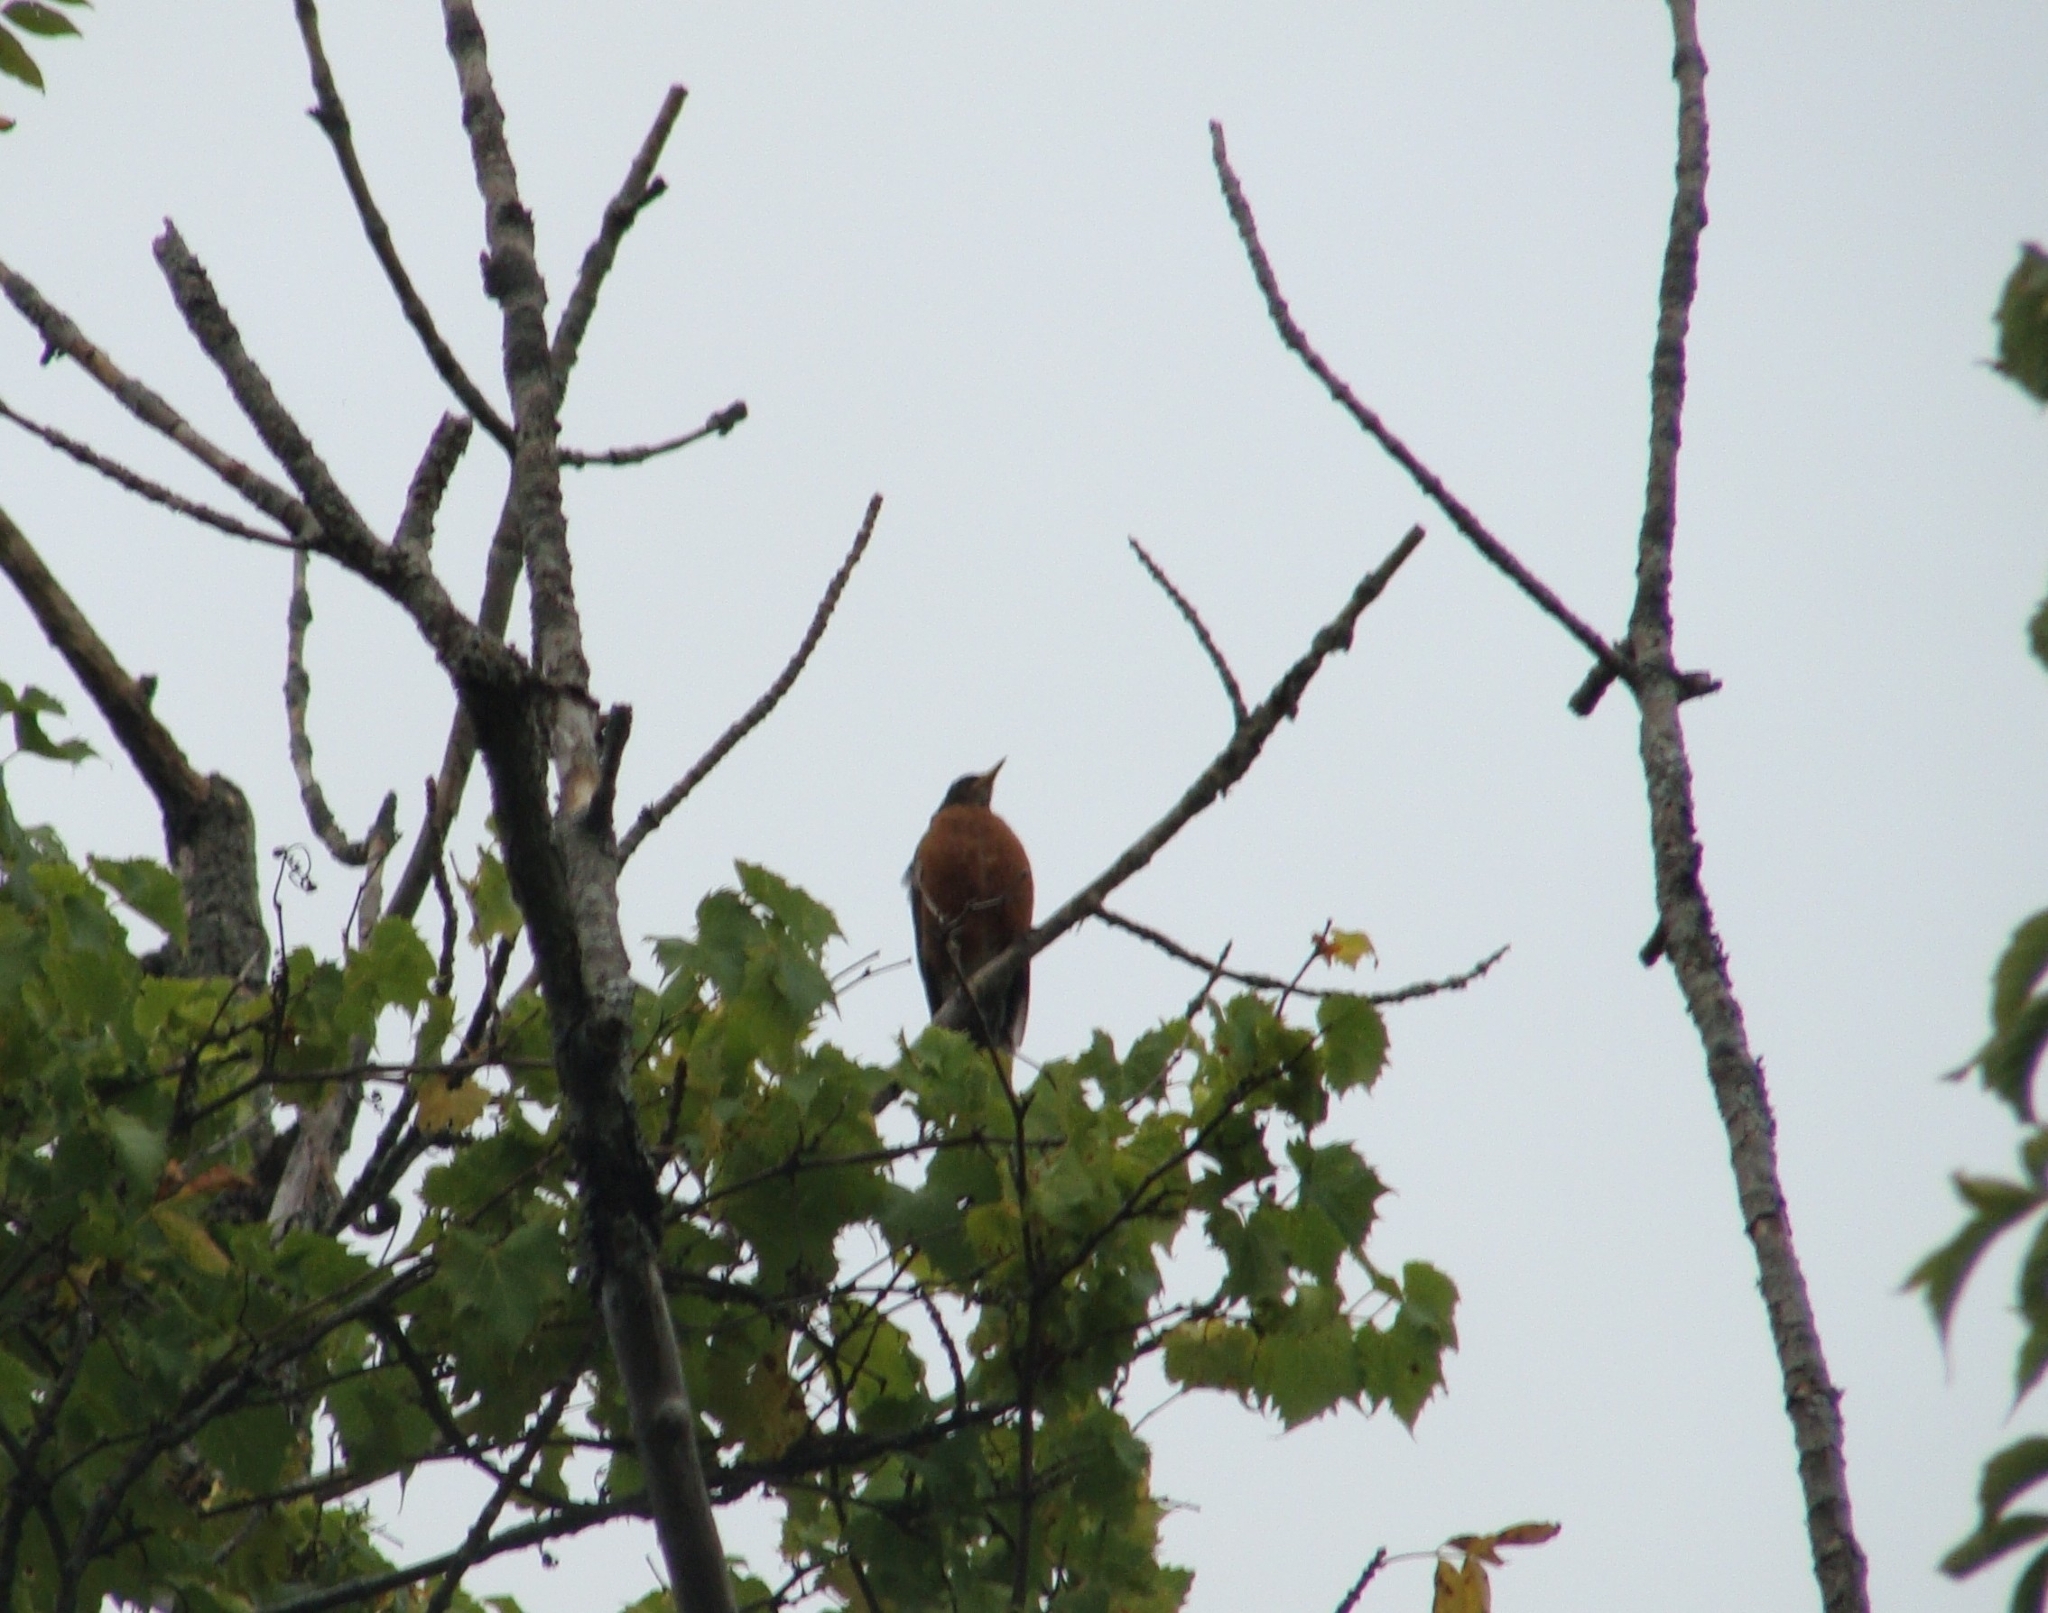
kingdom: Animalia
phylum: Chordata
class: Aves
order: Passeriformes
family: Turdidae
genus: Turdus
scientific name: Turdus migratorius
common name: American robin
